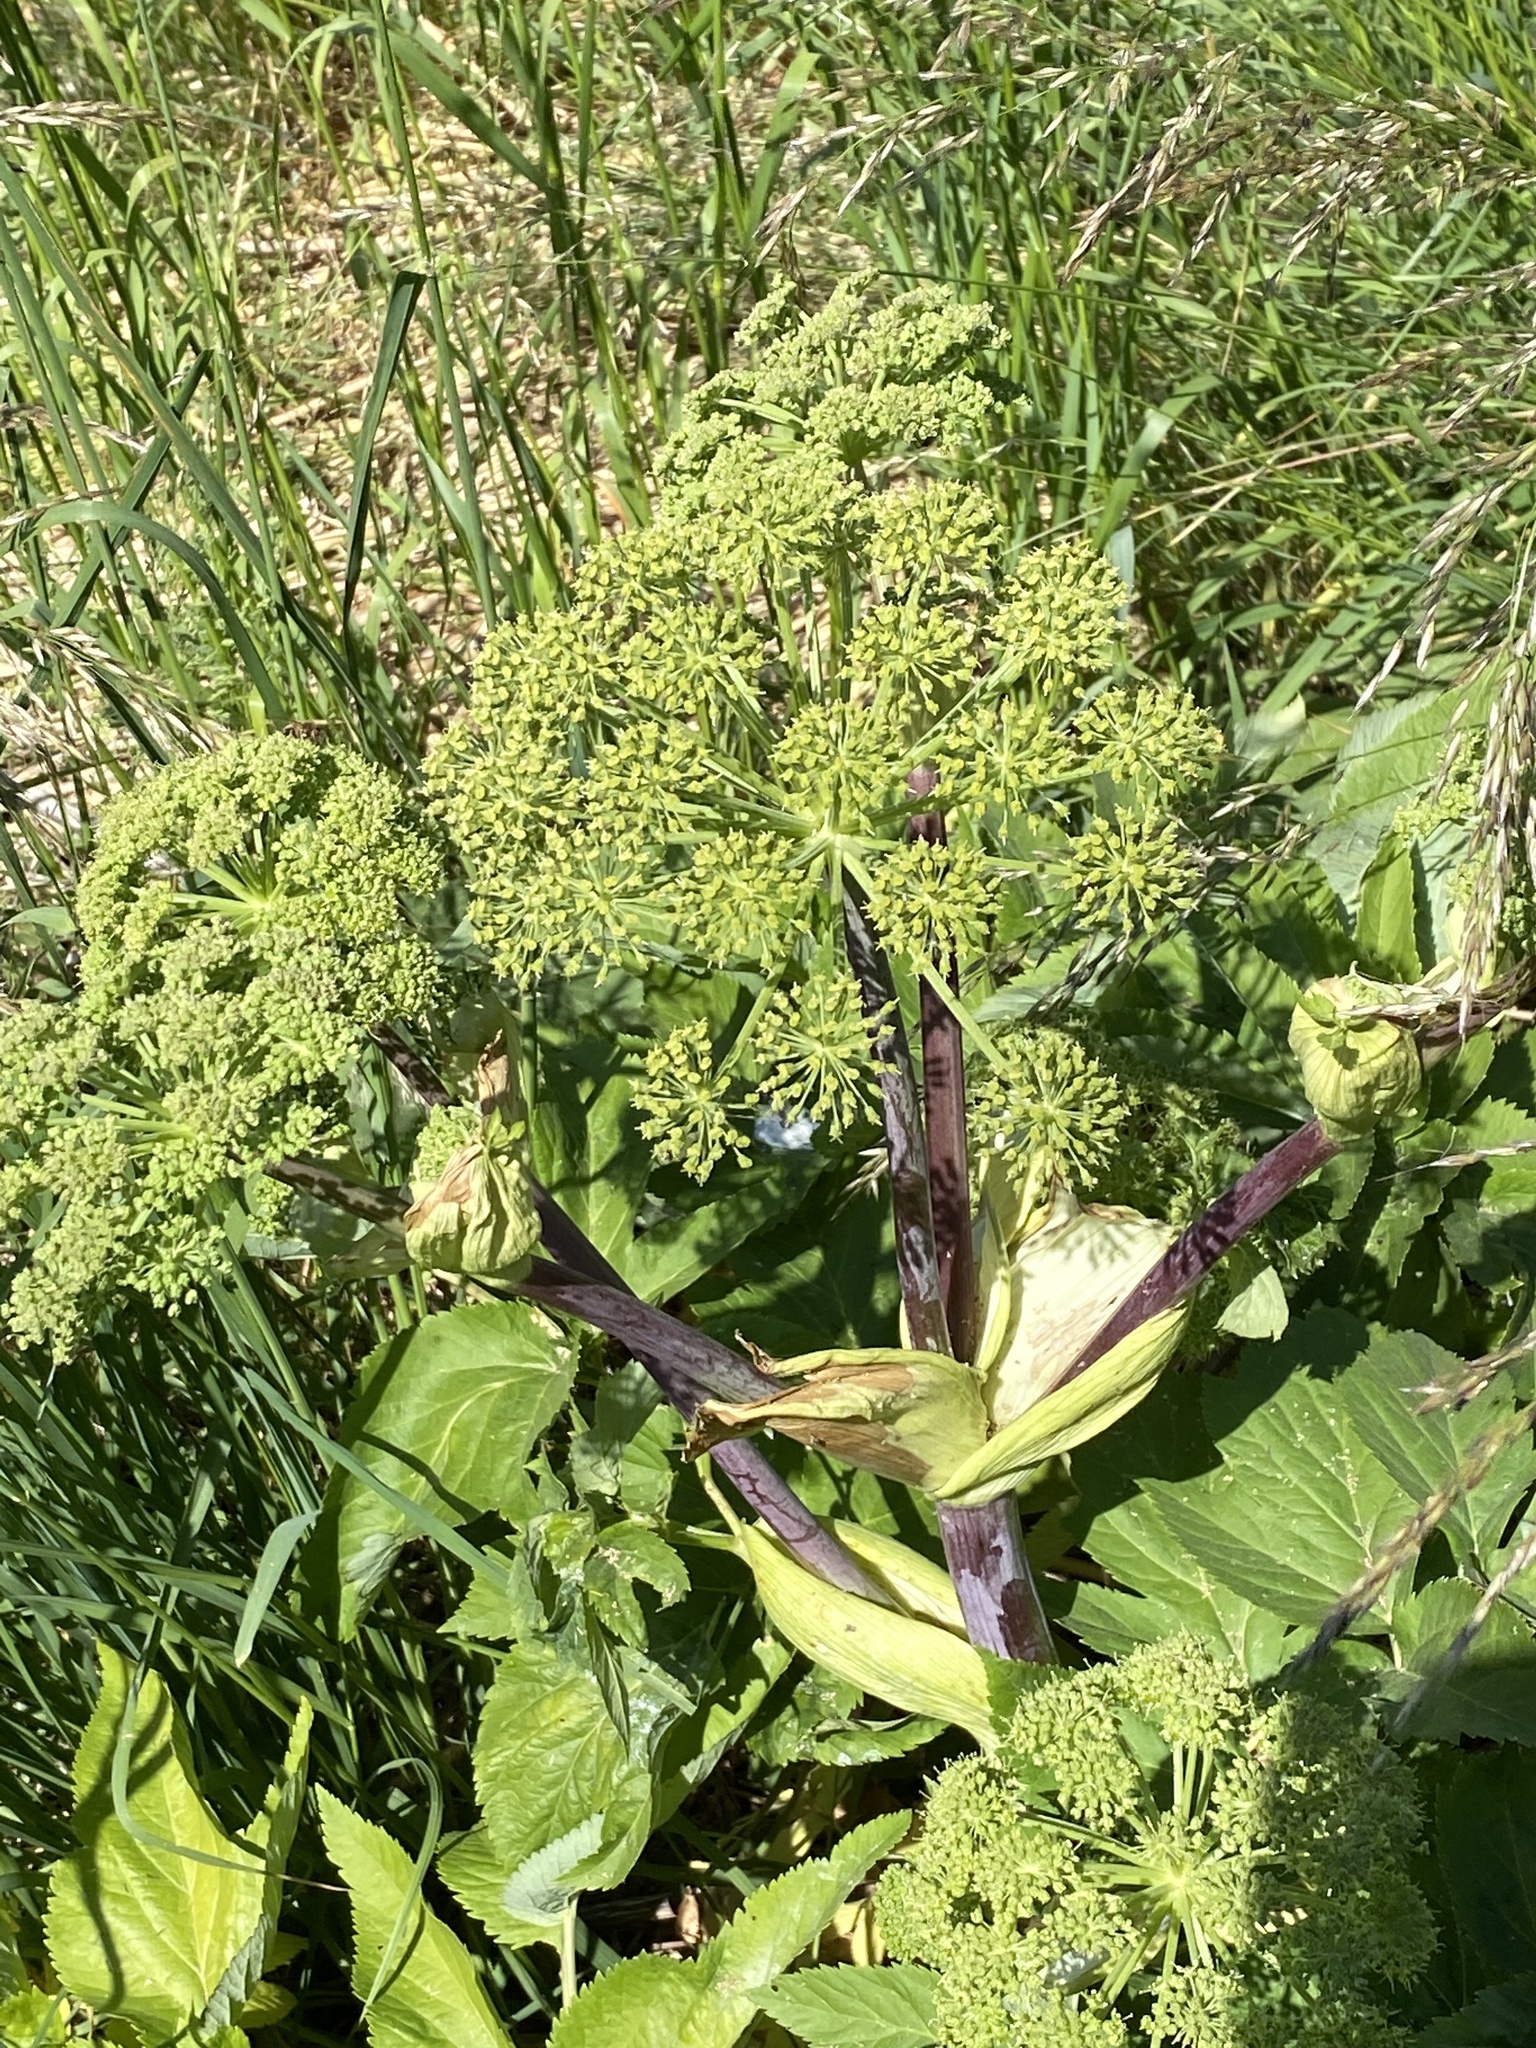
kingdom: Plantae
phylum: Tracheophyta
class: Magnoliopsida
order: Apiales
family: Apiaceae
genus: Angelica
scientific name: Angelica archangelica
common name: Garden angelica
